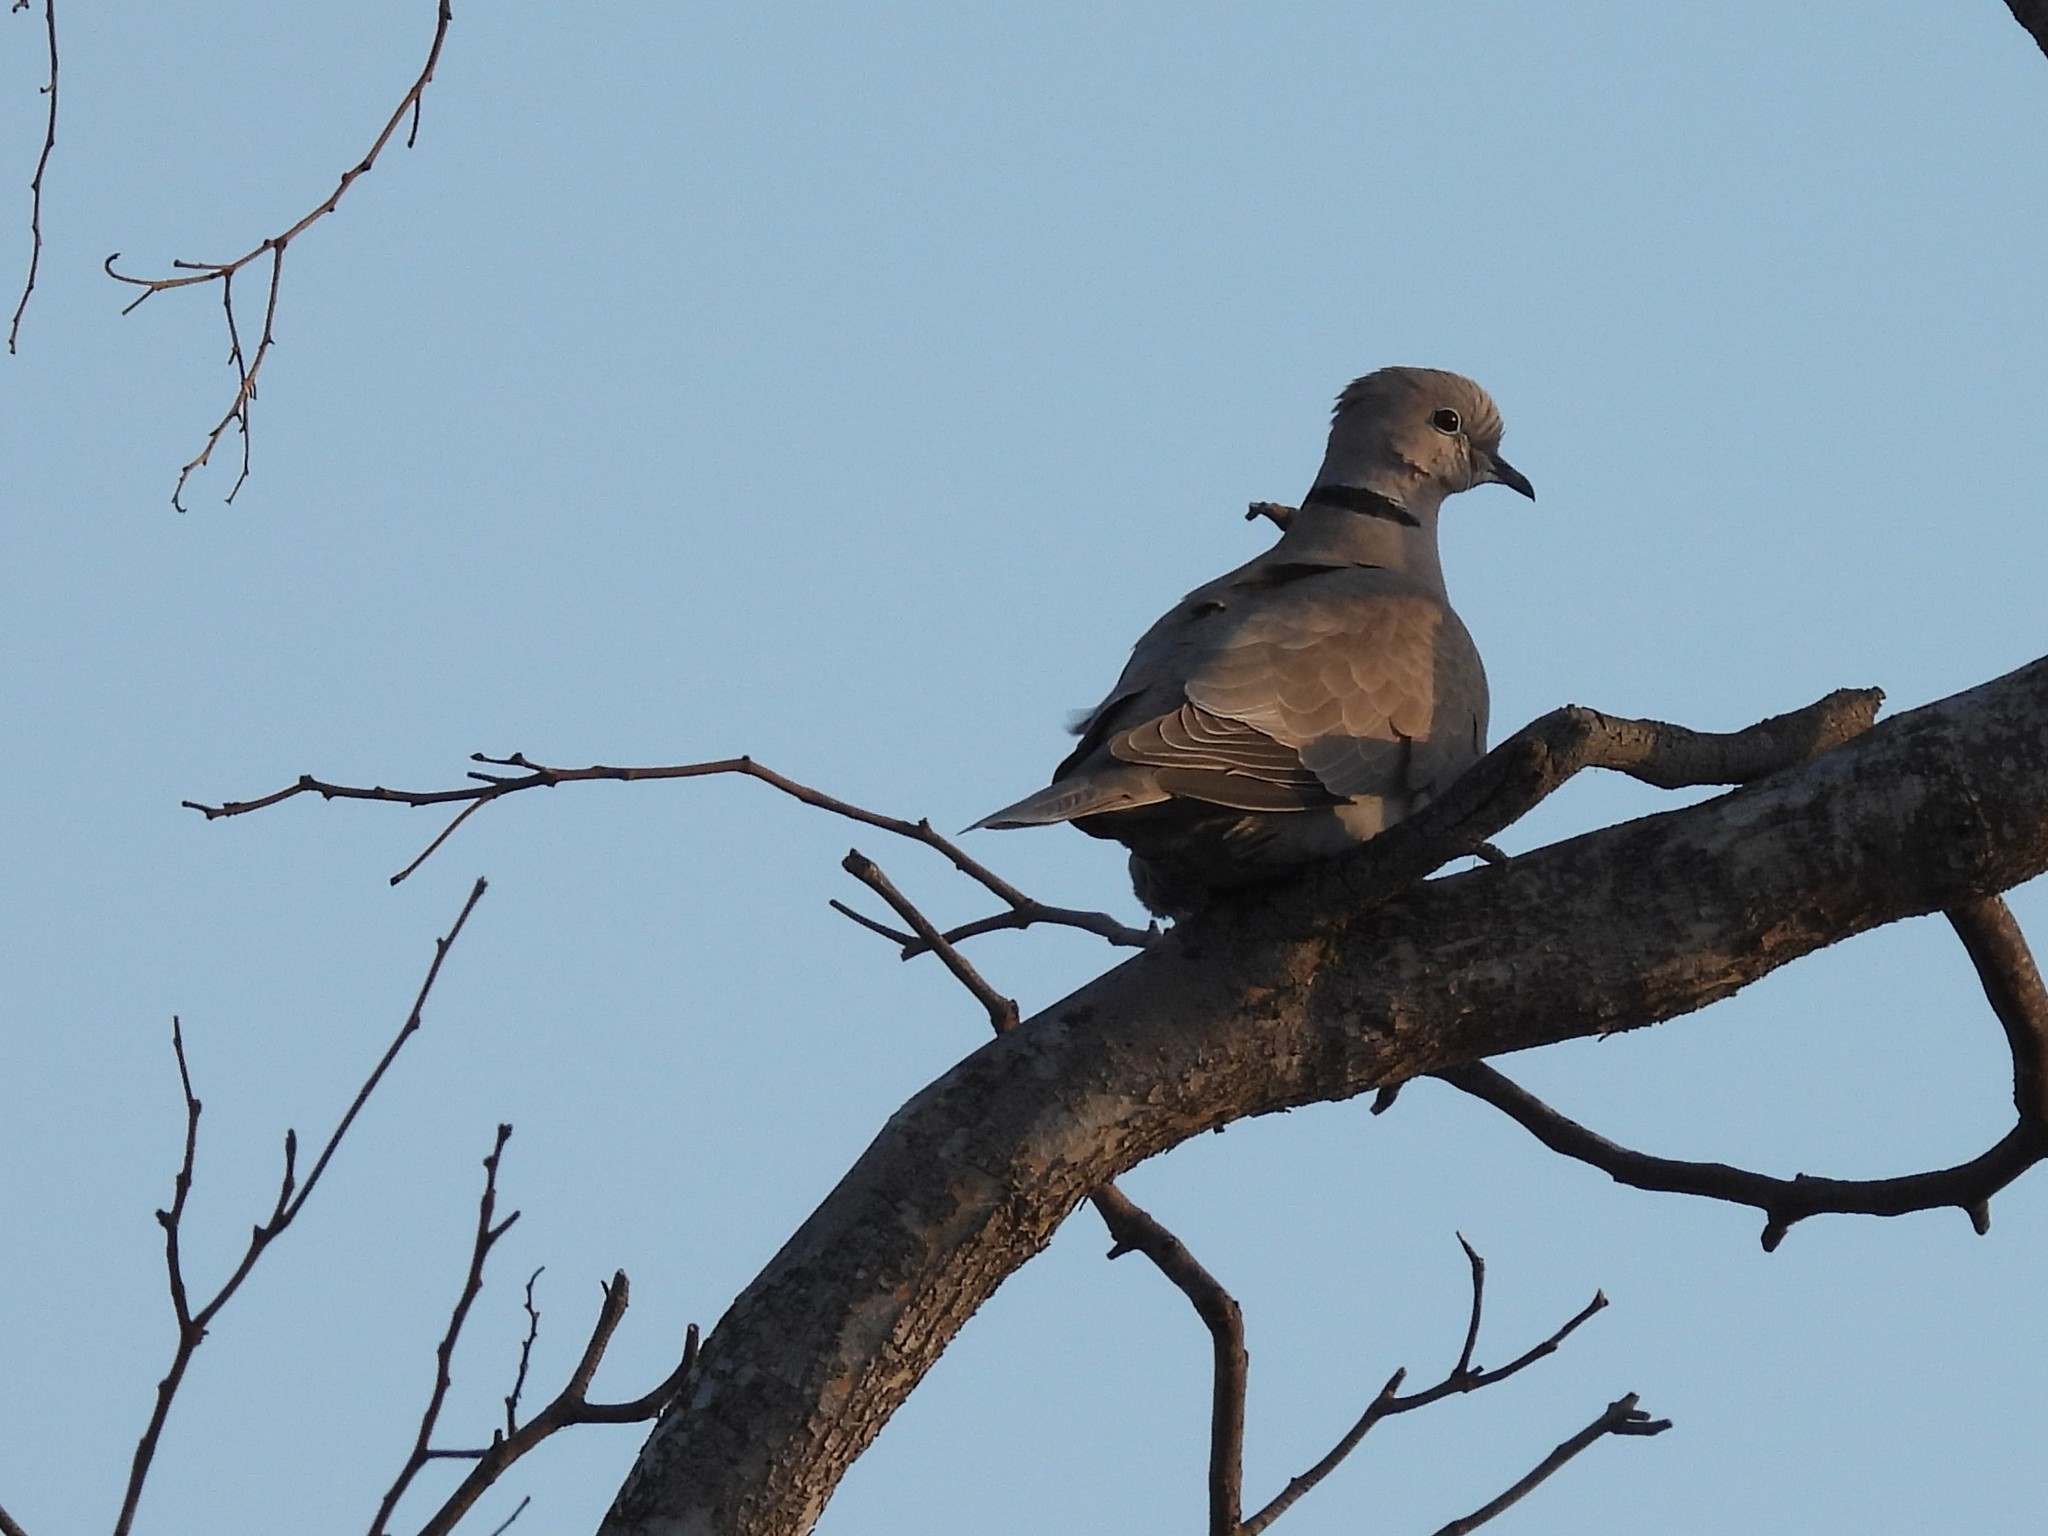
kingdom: Animalia
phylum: Chordata
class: Aves
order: Columbiformes
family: Columbidae
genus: Streptopelia
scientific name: Streptopelia decaocto
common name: Eurasian collared dove
